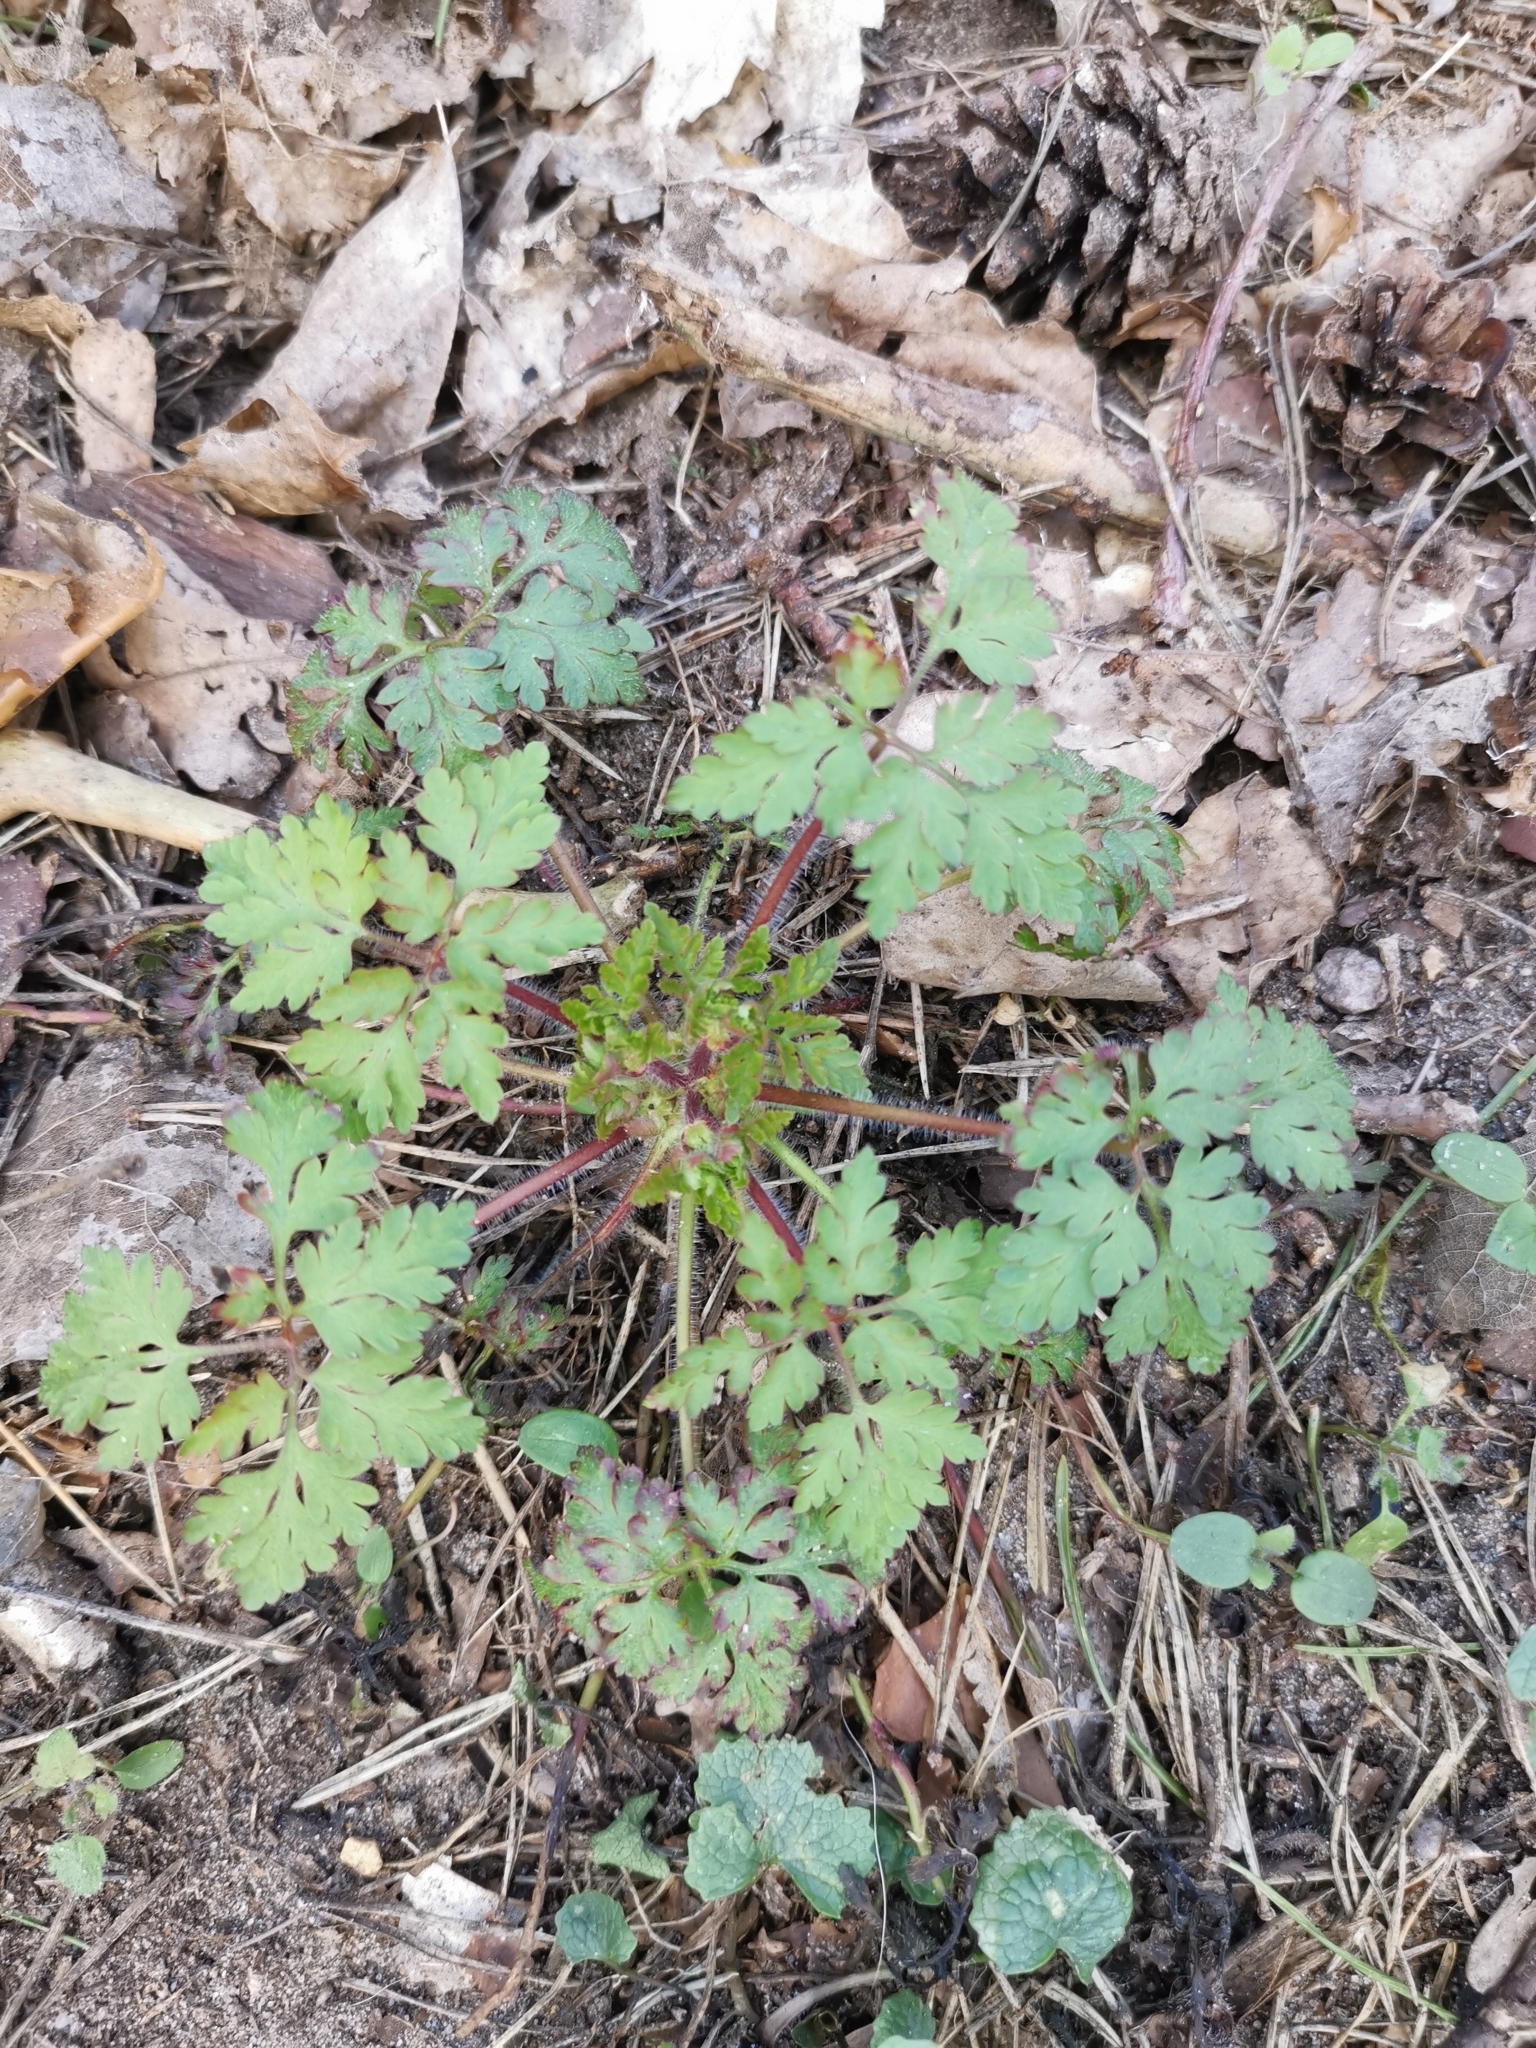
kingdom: Plantae
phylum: Tracheophyta
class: Magnoliopsida
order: Geraniales
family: Geraniaceae
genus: Geranium
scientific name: Geranium robertianum
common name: Herb-robert
